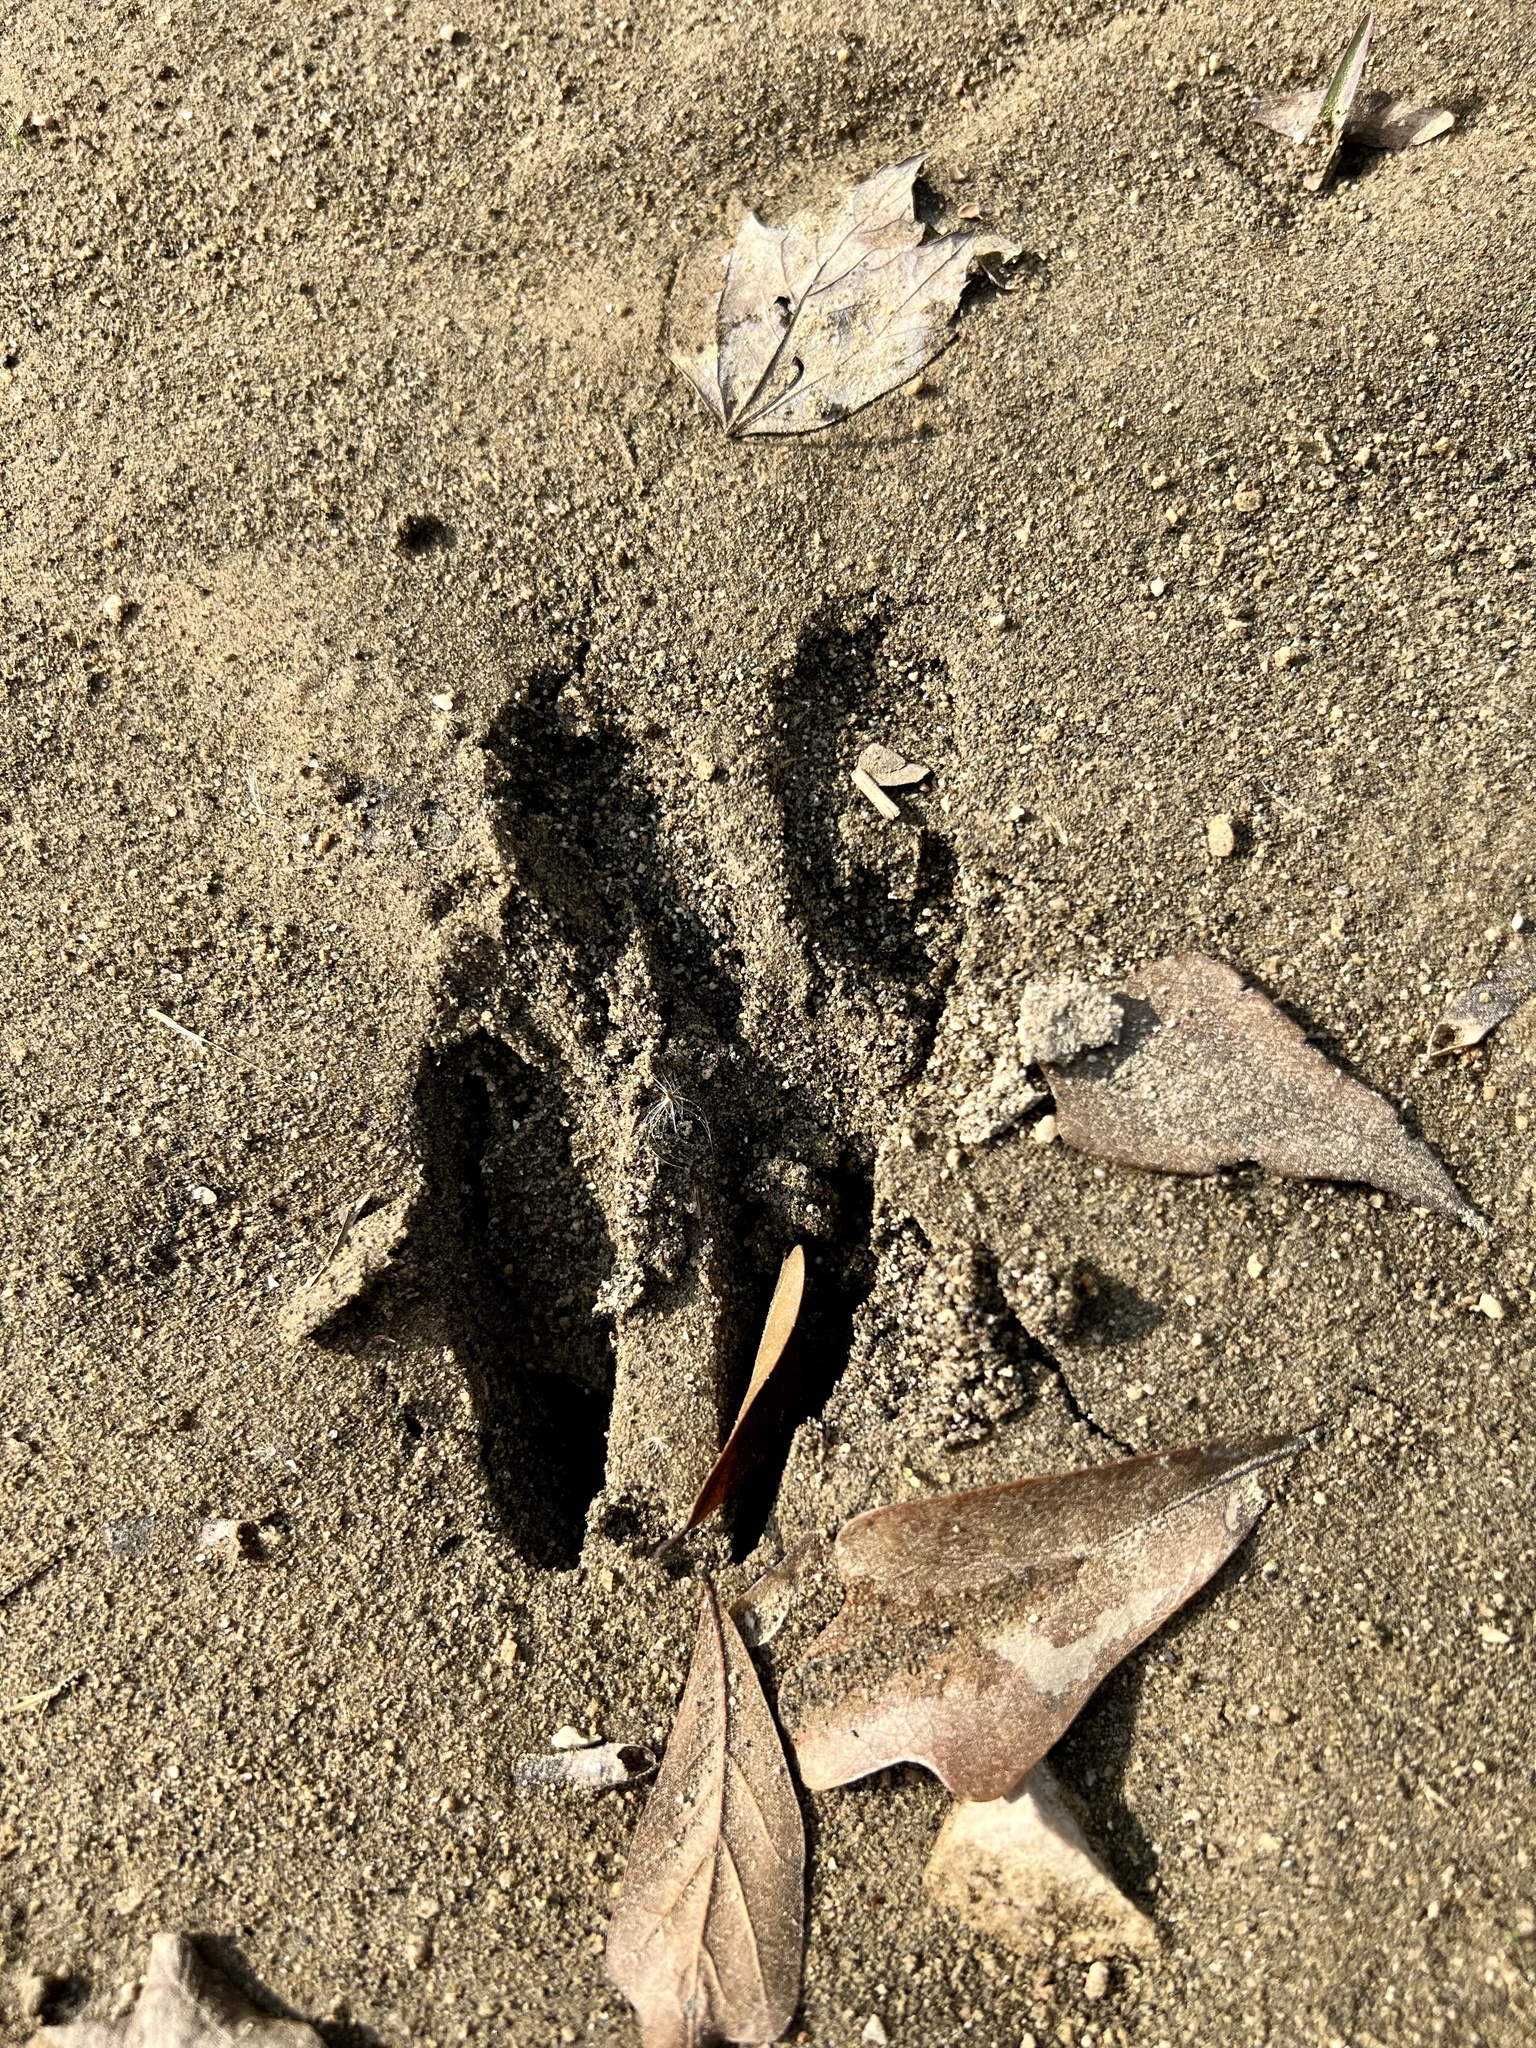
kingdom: Animalia
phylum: Chordata
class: Mammalia
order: Artiodactyla
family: Cervidae
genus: Odocoileus
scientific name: Odocoileus virginianus
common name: White-tailed deer
